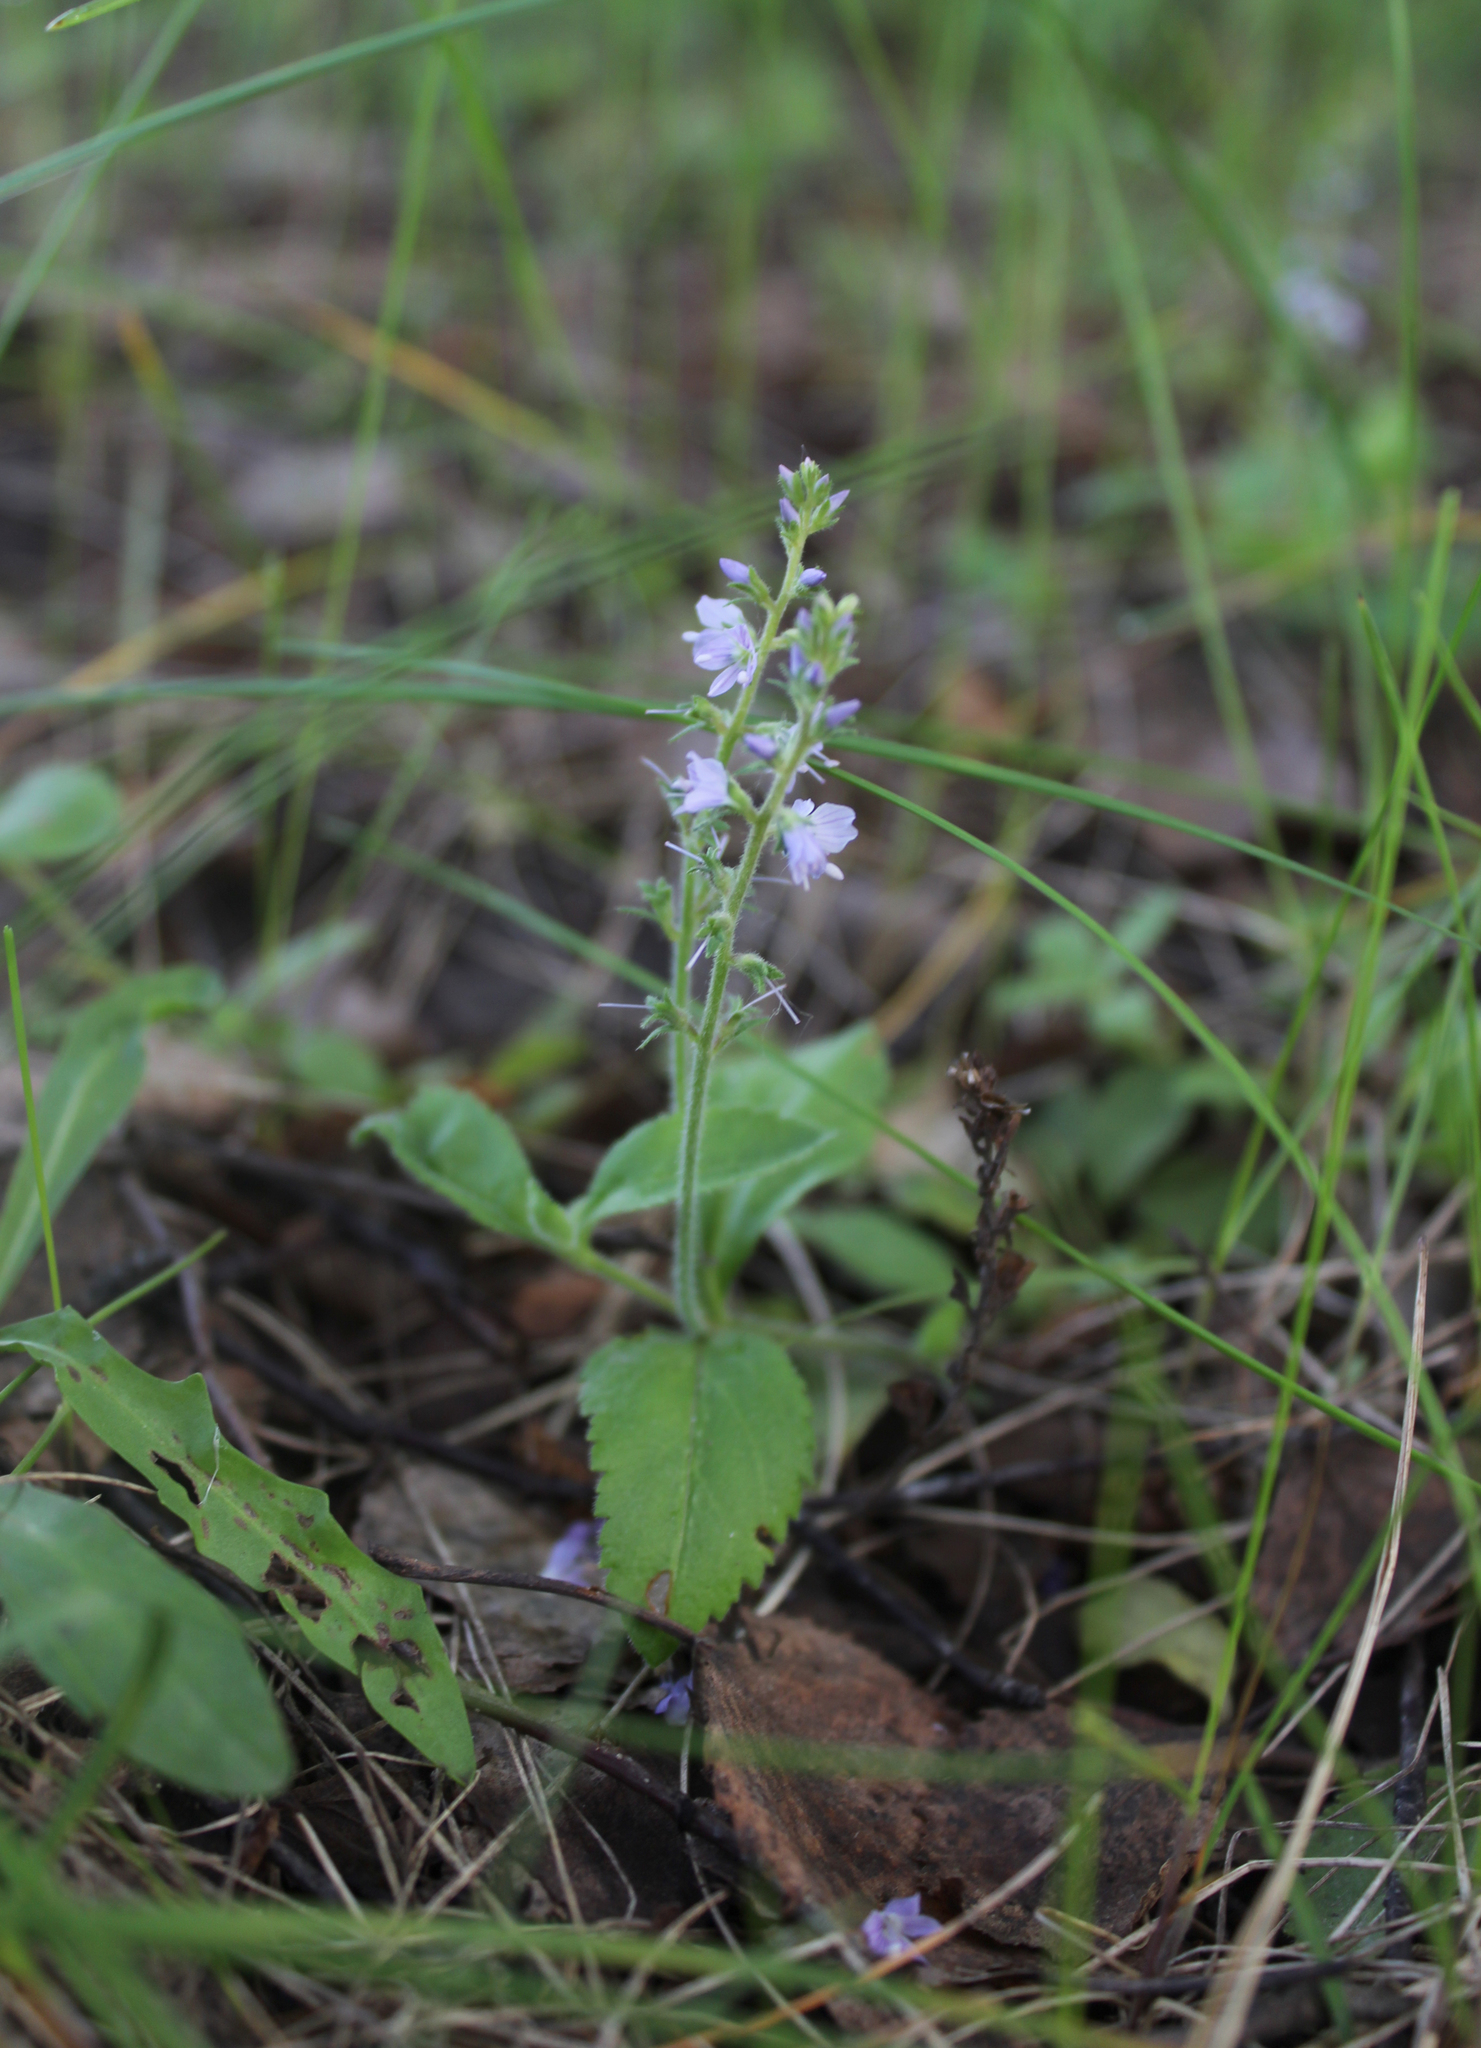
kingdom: Plantae
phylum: Tracheophyta
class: Magnoliopsida
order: Lamiales
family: Plantaginaceae
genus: Veronica
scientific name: Veronica officinalis
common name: Common speedwell
